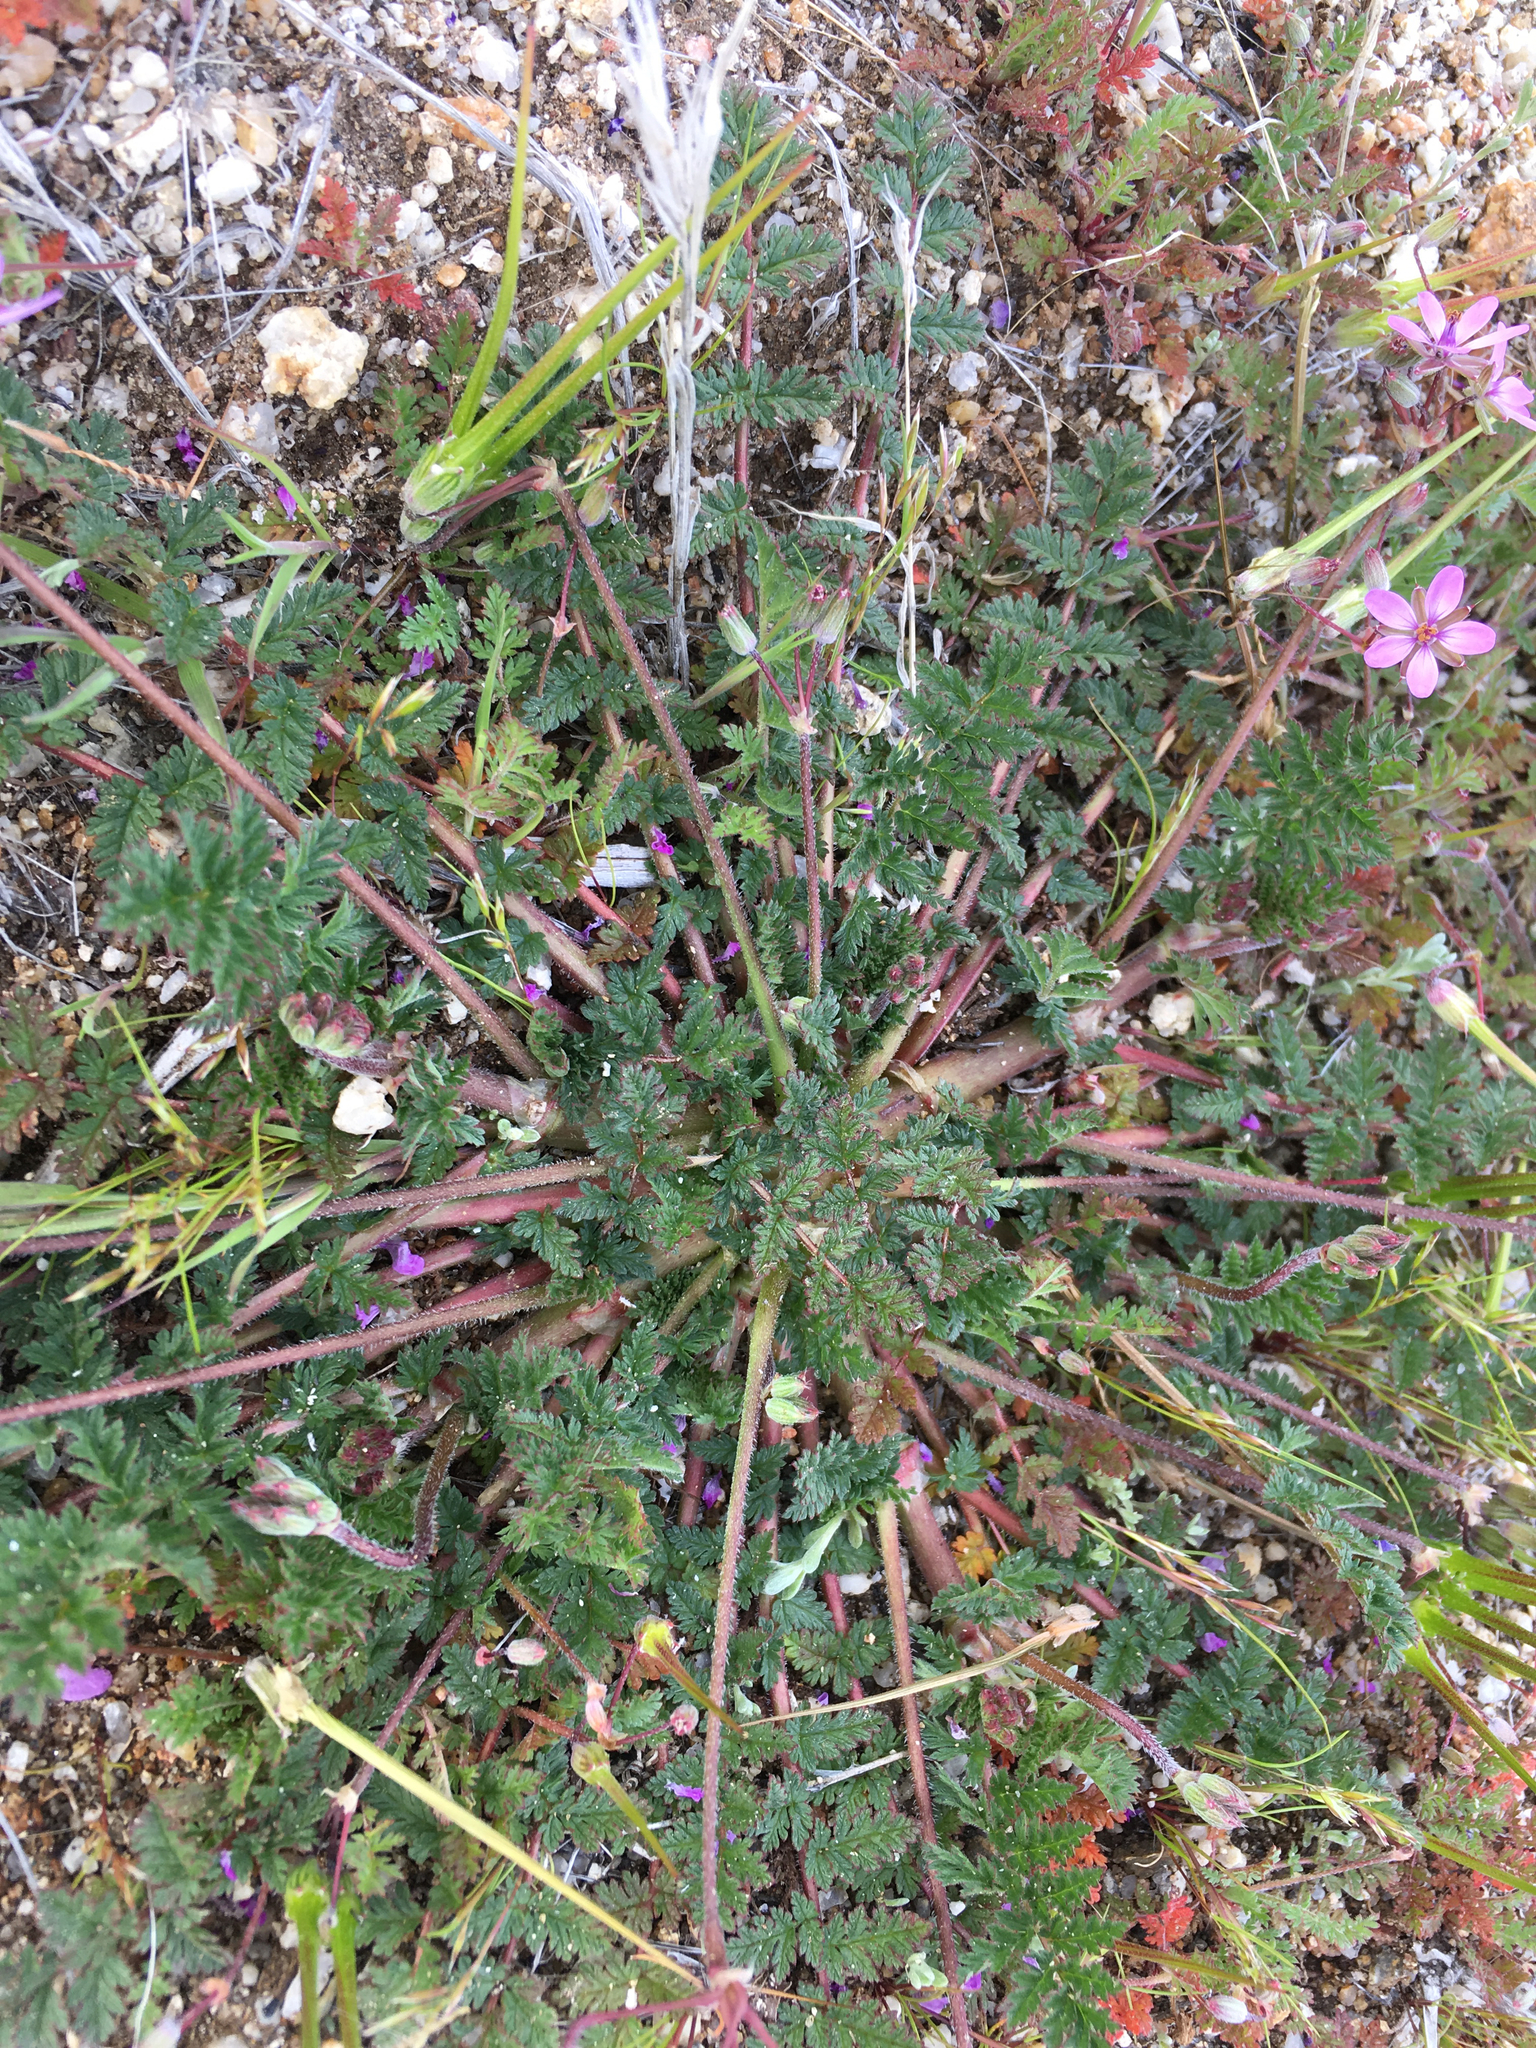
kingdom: Plantae
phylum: Tracheophyta
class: Magnoliopsida
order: Geraniales
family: Geraniaceae
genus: Erodium
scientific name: Erodium cicutarium
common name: Common stork's-bill
